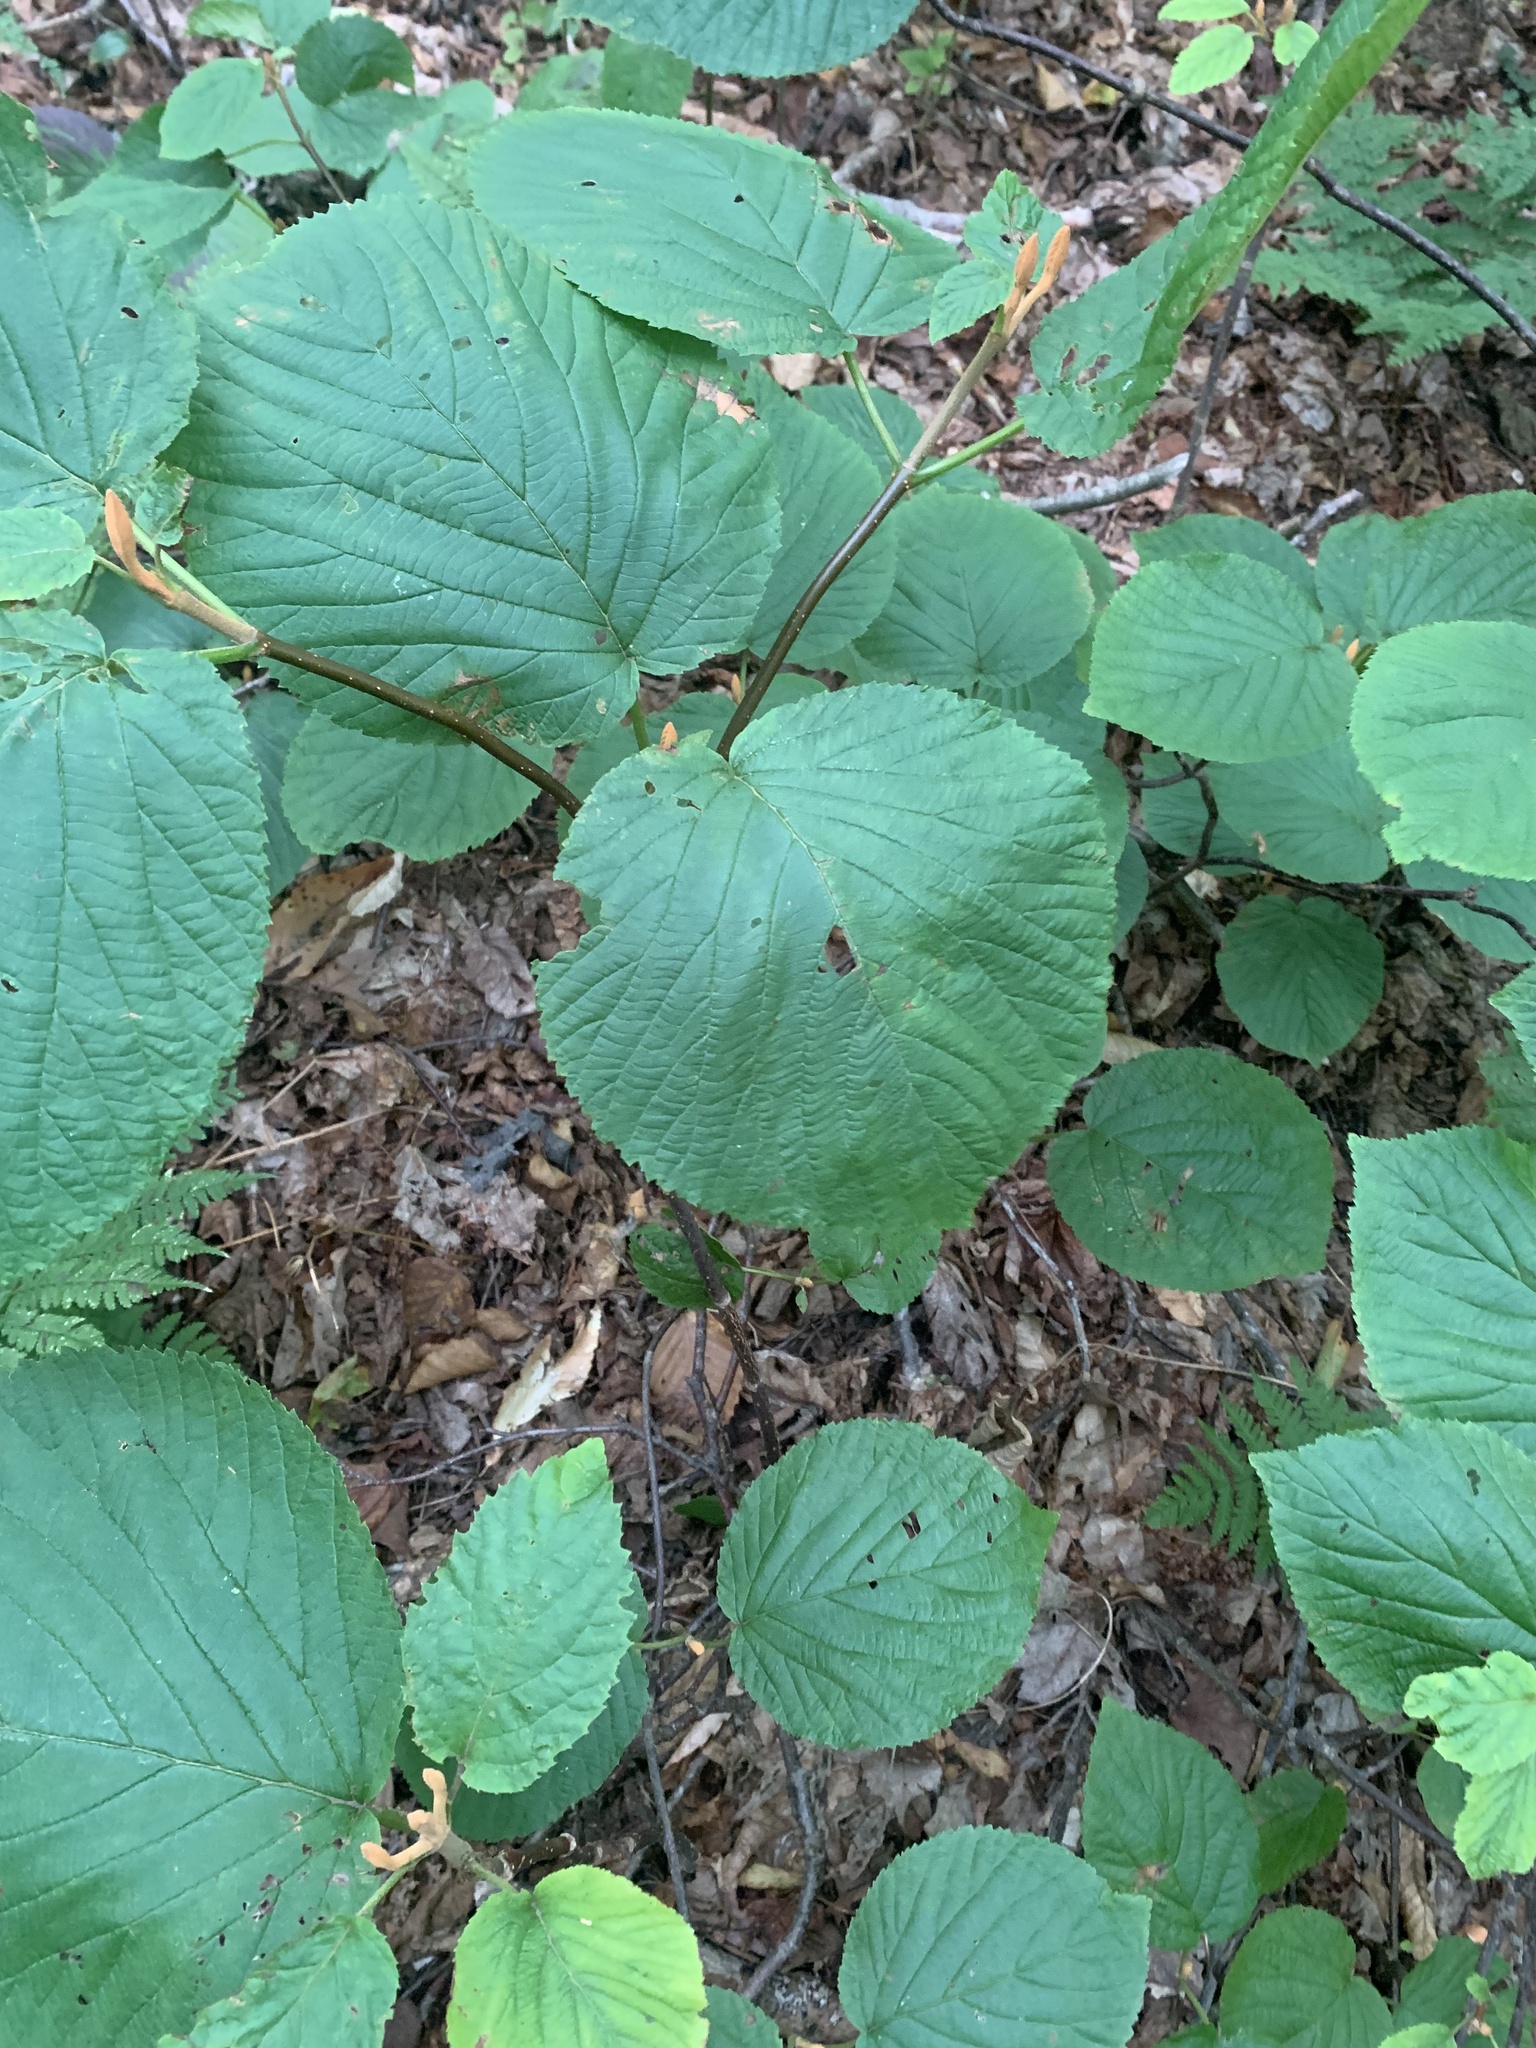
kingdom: Plantae
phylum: Tracheophyta
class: Magnoliopsida
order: Dipsacales
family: Viburnaceae
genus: Viburnum
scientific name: Viburnum lantanoides
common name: Hobblebush
